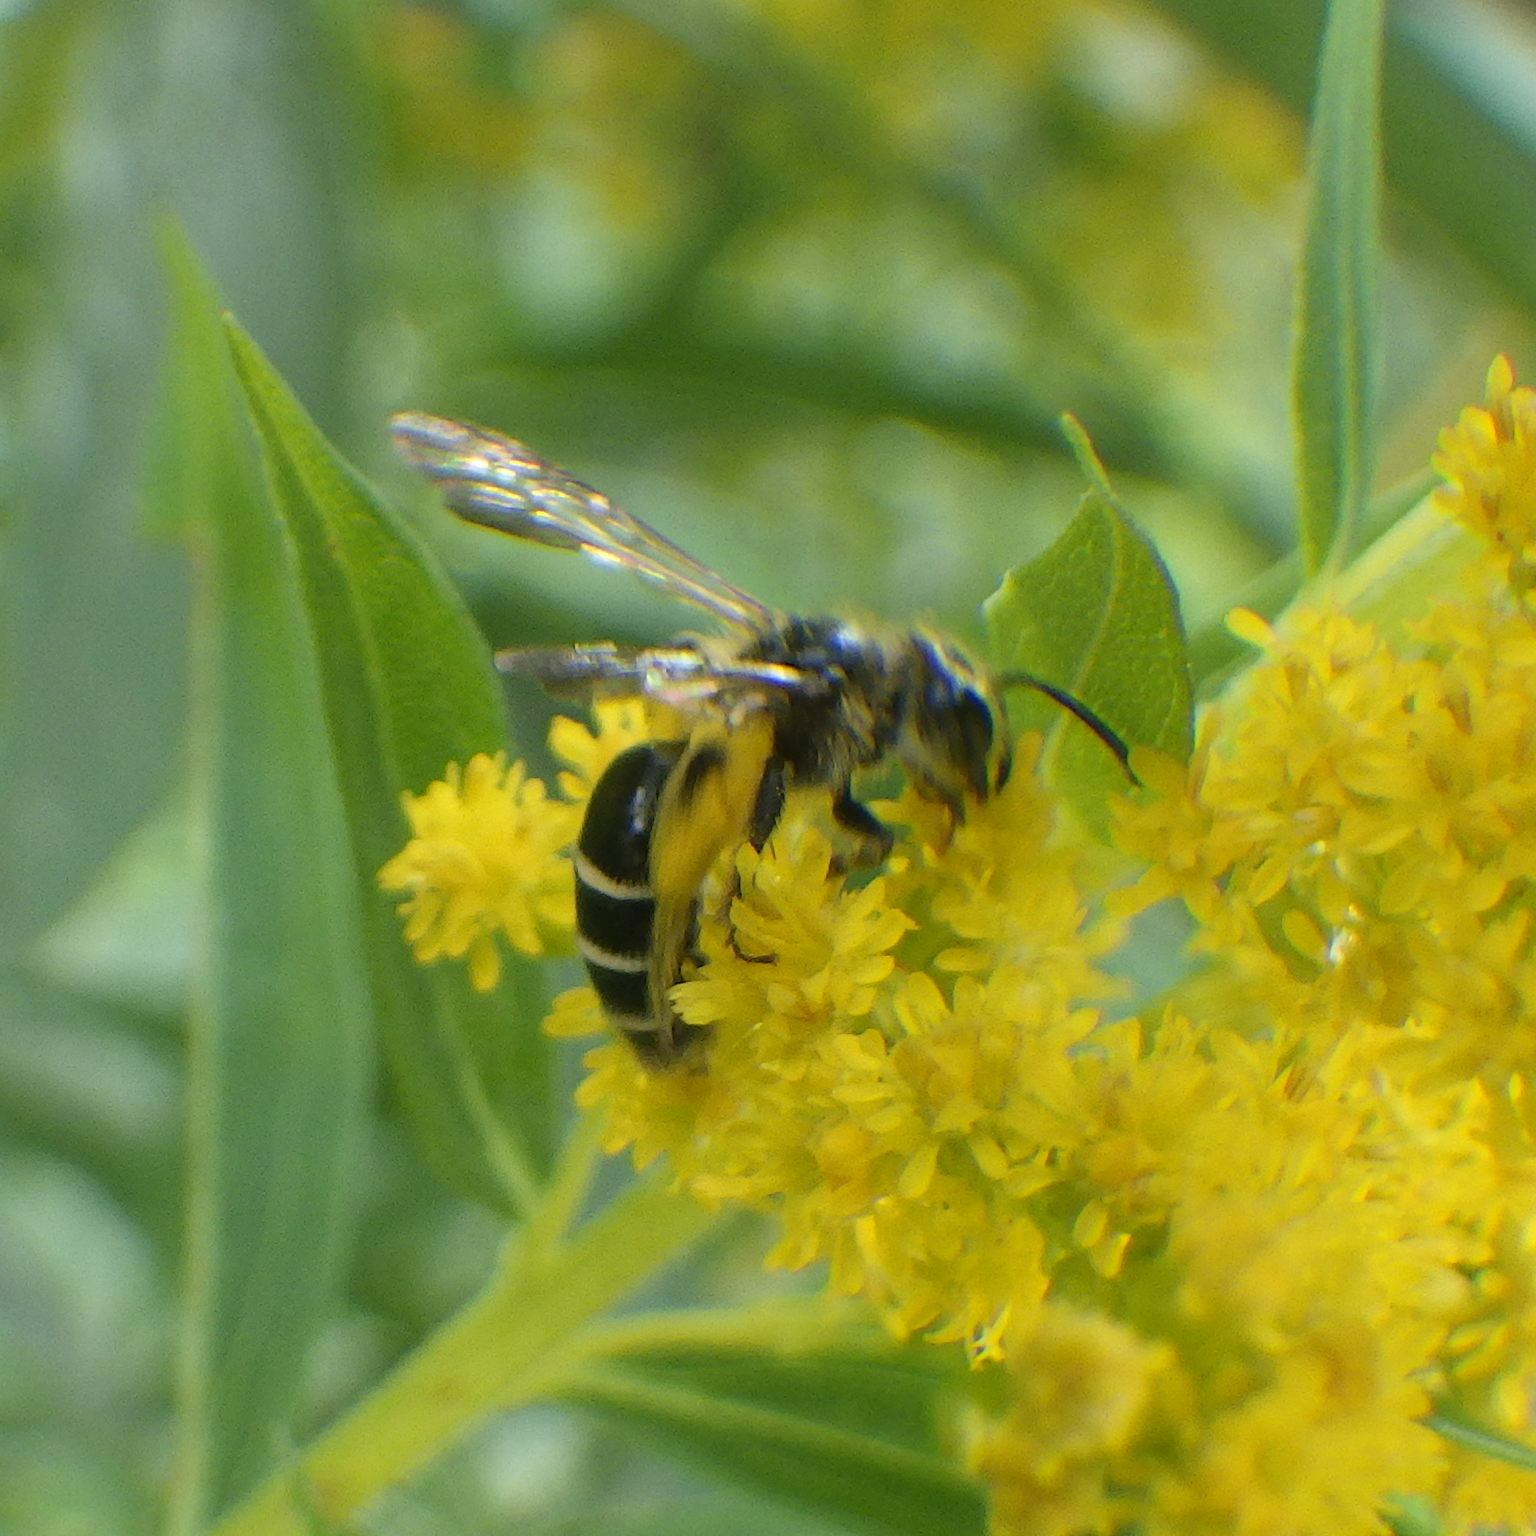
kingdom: Animalia
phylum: Arthropoda
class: Insecta
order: Hymenoptera
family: Andrenidae
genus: Andrena
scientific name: Andrena nubecula
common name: Cloudy-winged mining bee
